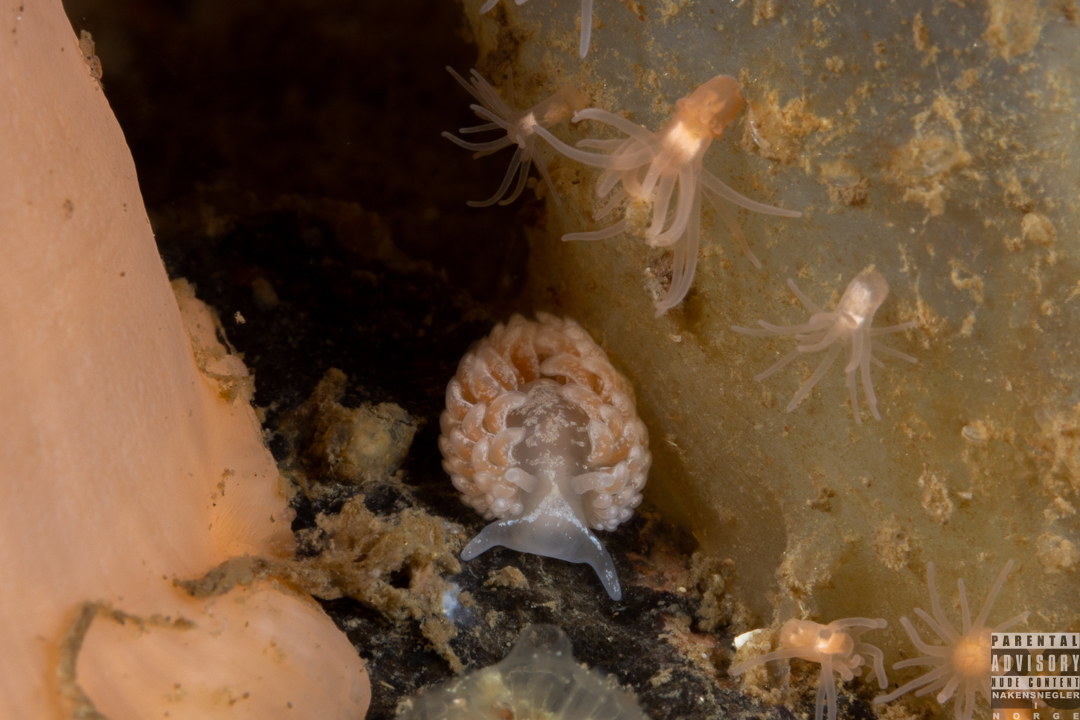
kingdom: Animalia
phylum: Mollusca
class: Gastropoda
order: Nudibranchia
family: Aeolidiidae
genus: Aeolidia
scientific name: Aeolidia filomenae
